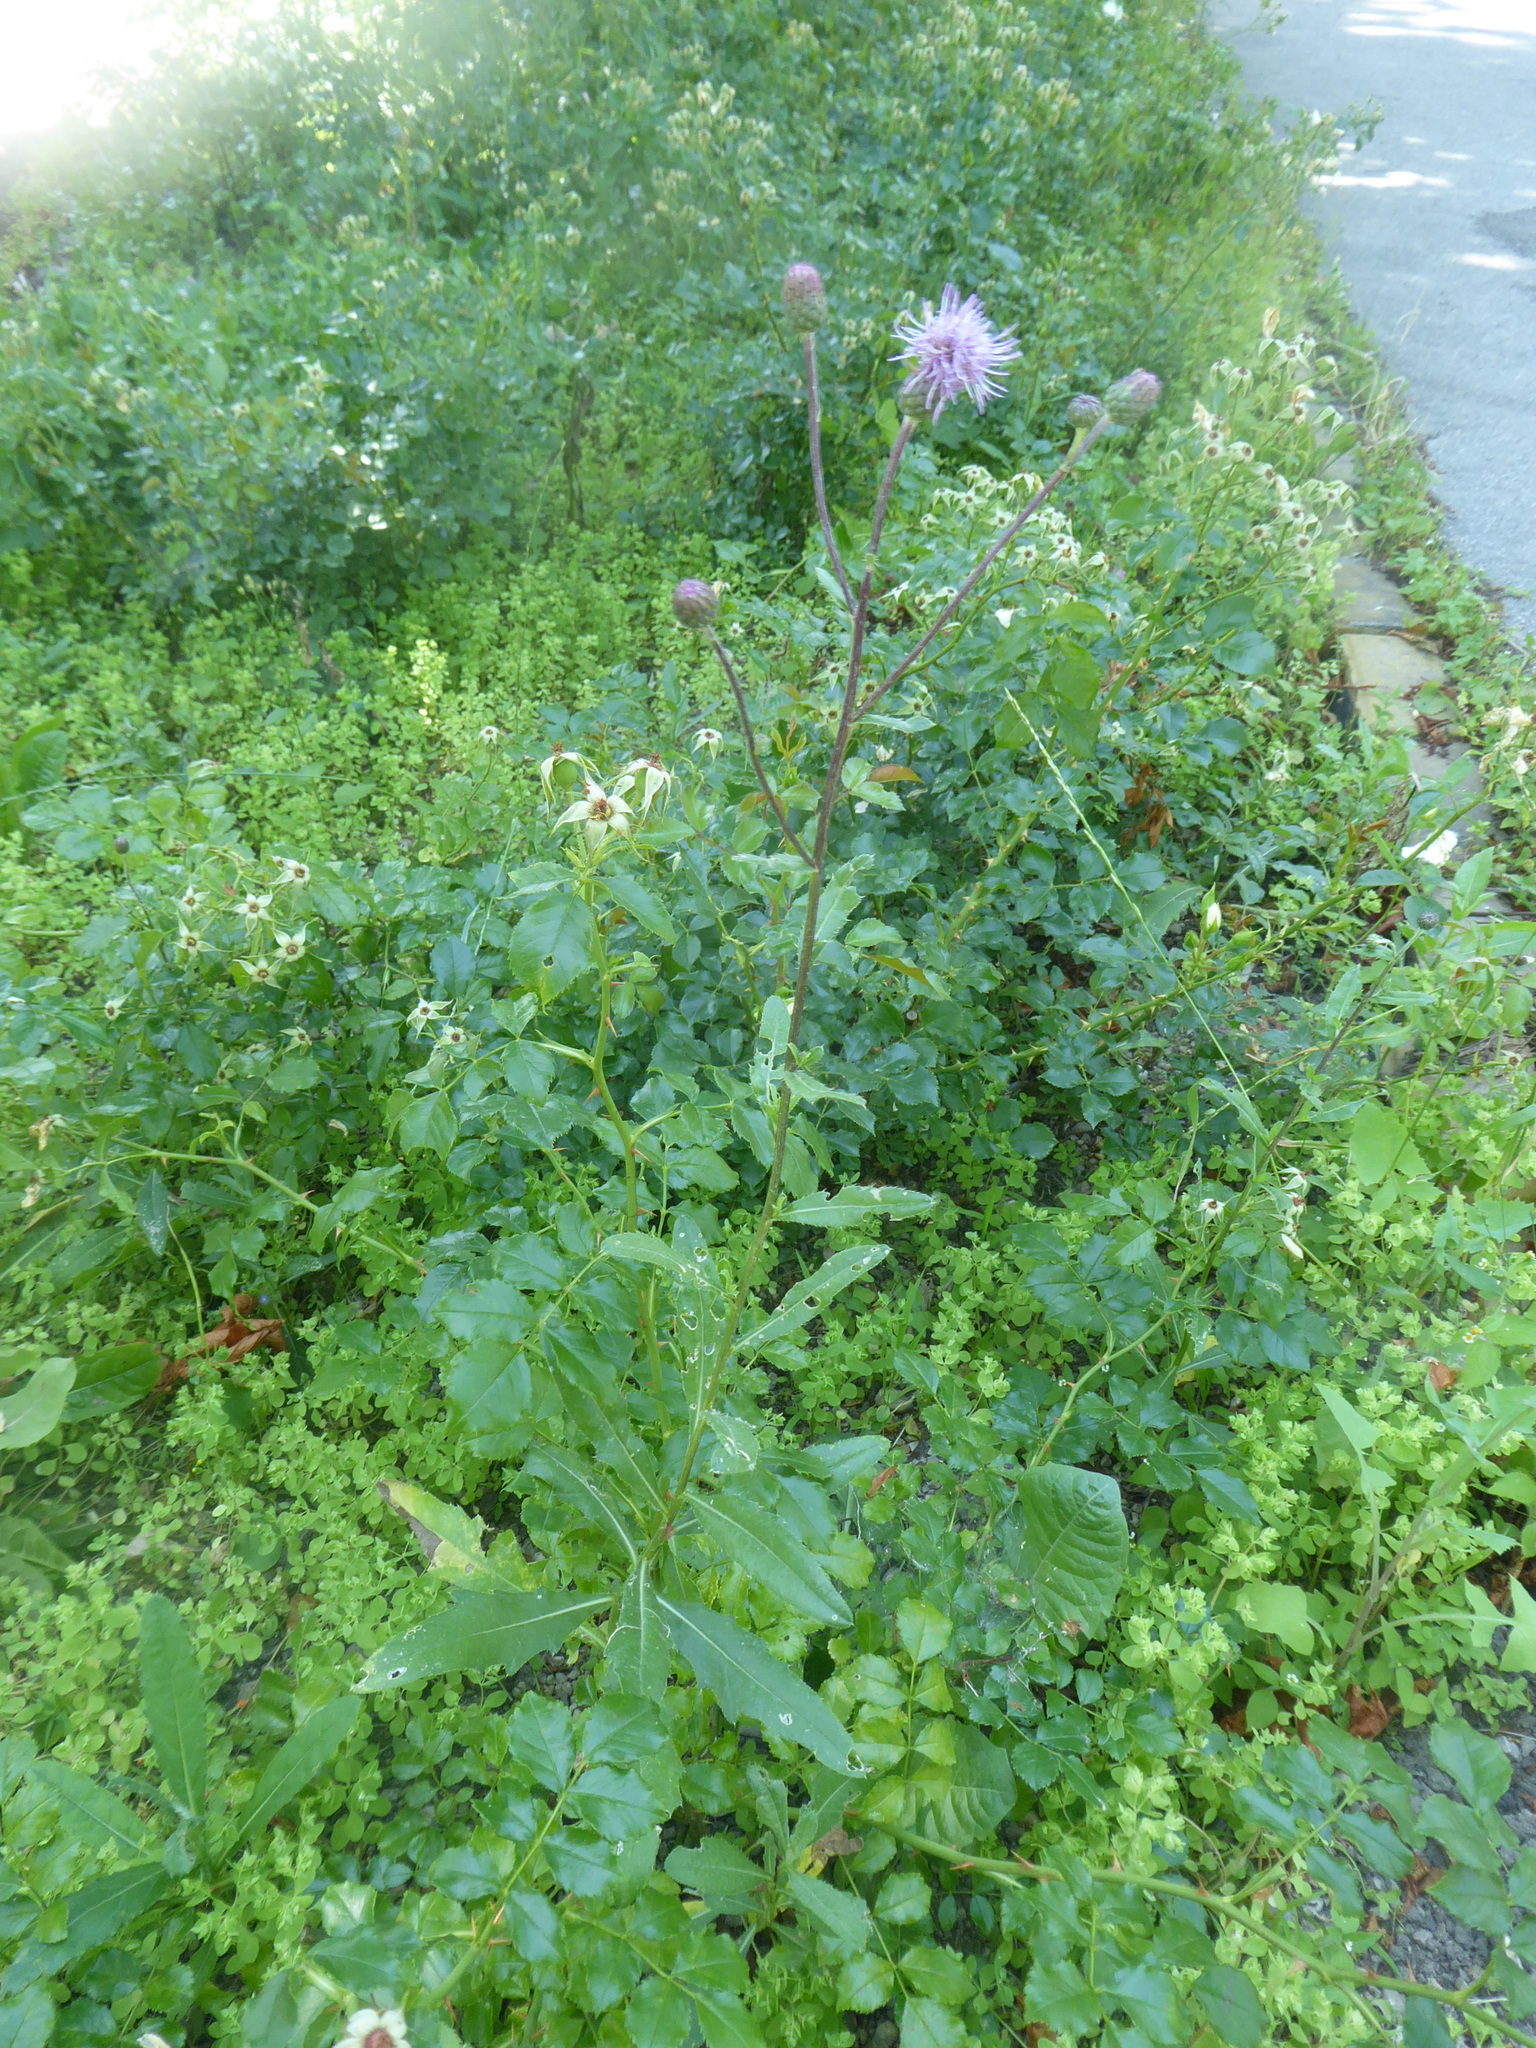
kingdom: Plantae
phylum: Tracheophyta
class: Magnoliopsida
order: Asterales
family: Asteraceae
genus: Cirsium
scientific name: Cirsium arvense
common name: Creeping thistle
